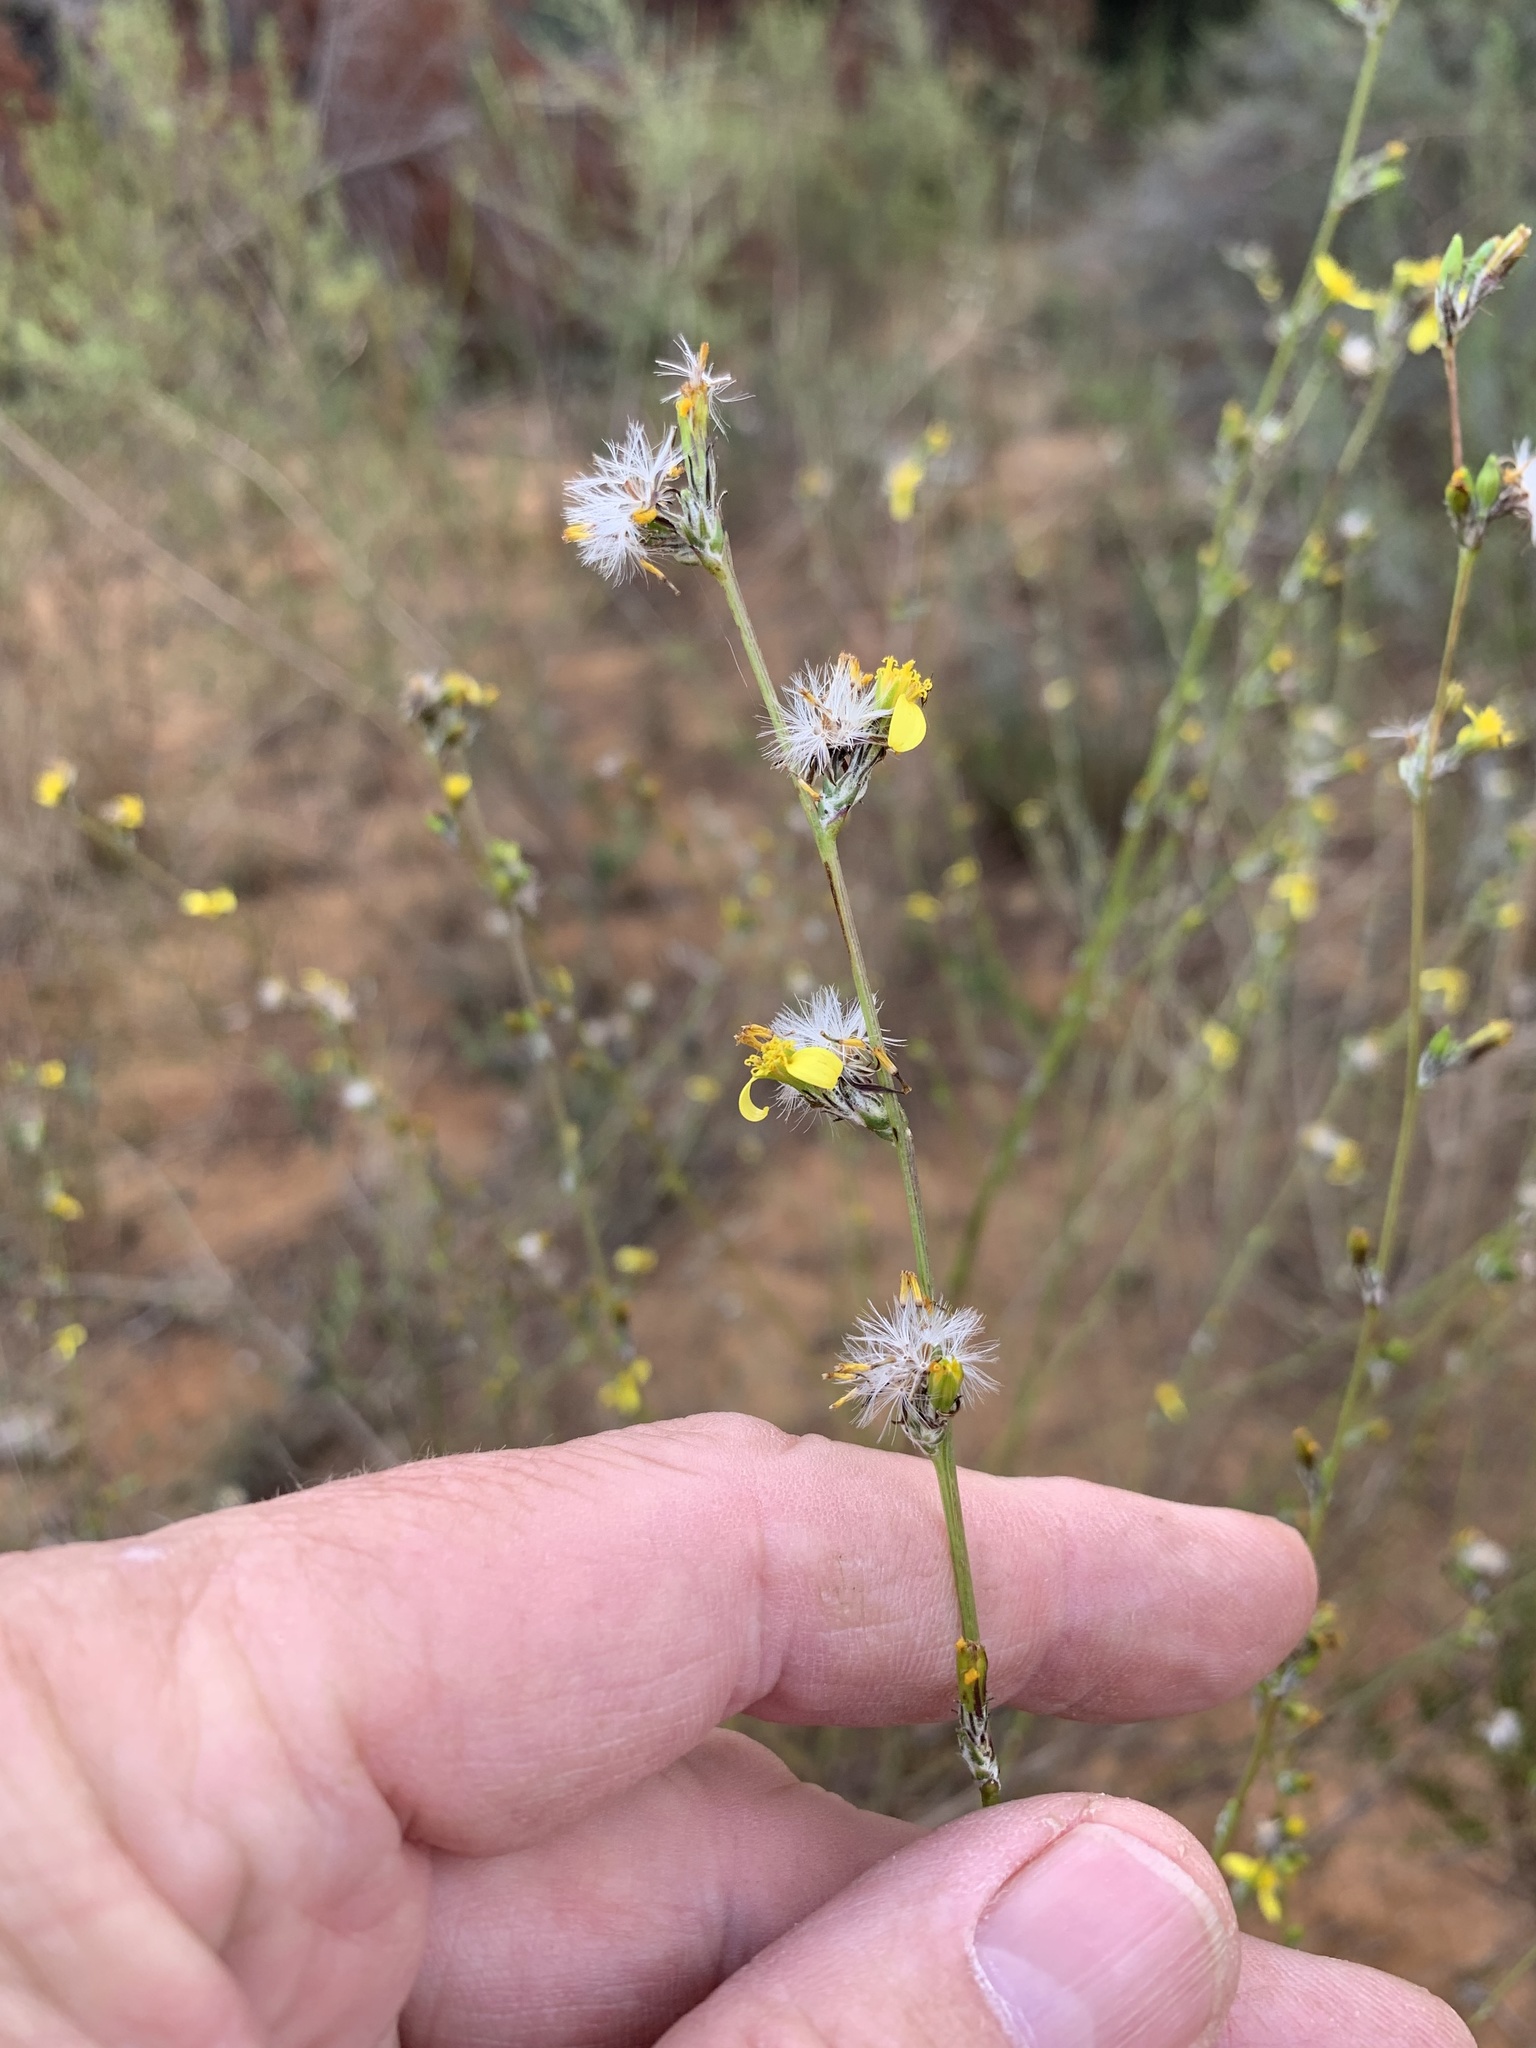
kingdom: Plantae
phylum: Tracheophyta
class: Magnoliopsida
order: Asterales
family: Asteraceae
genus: Senecio
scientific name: Senecio pubigerus
